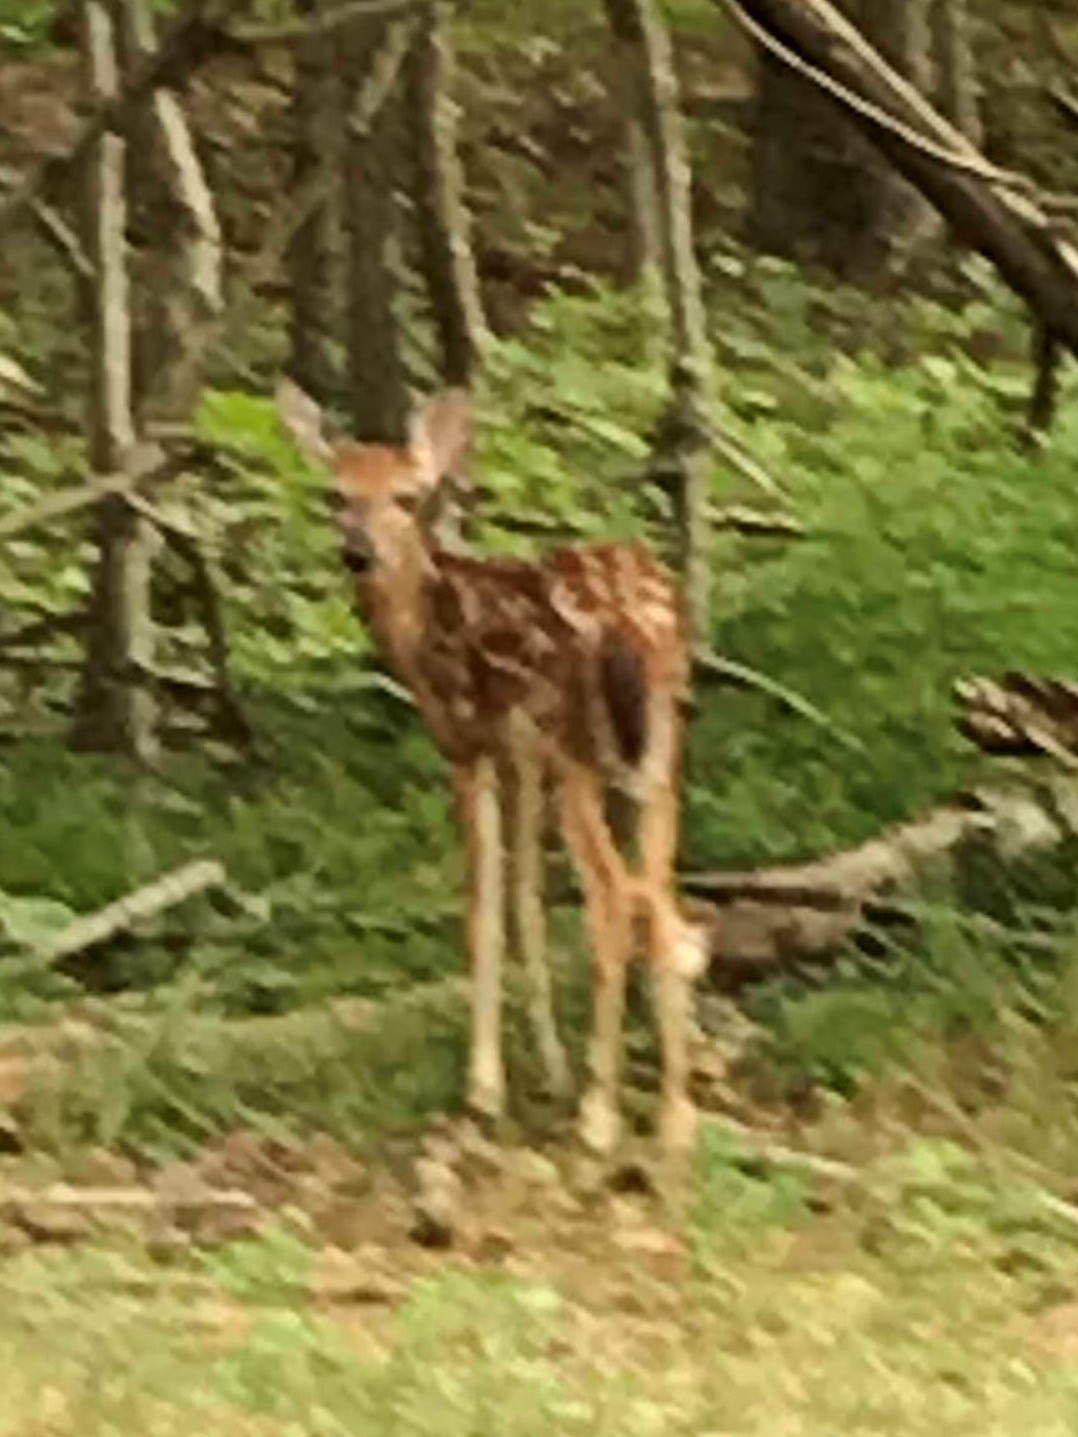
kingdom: Animalia
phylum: Chordata
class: Mammalia
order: Artiodactyla
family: Cervidae
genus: Odocoileus
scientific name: Odocoileus virginianus
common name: White-tailed deer
